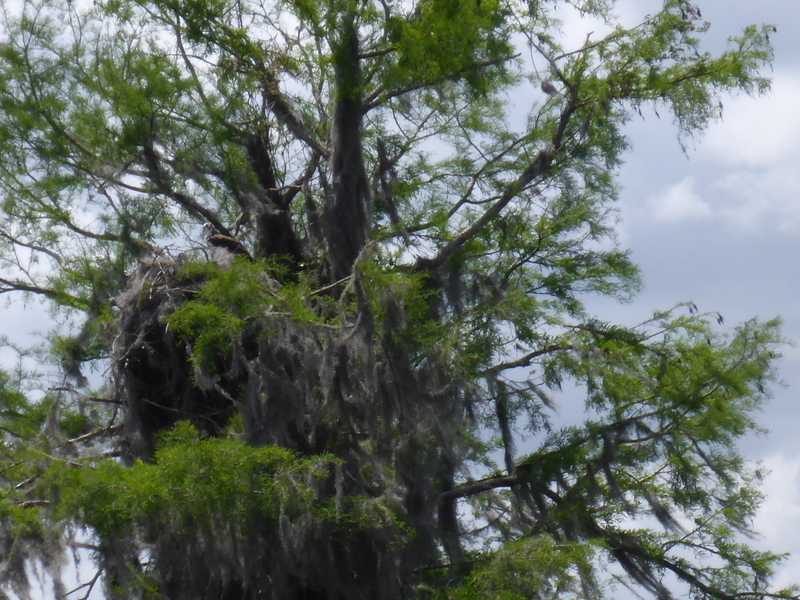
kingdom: Animalia
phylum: Chordata
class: Aves
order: Accipitriformes
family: Pandionidae
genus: Pandion
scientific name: Pandion haliaetus
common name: Osprey
